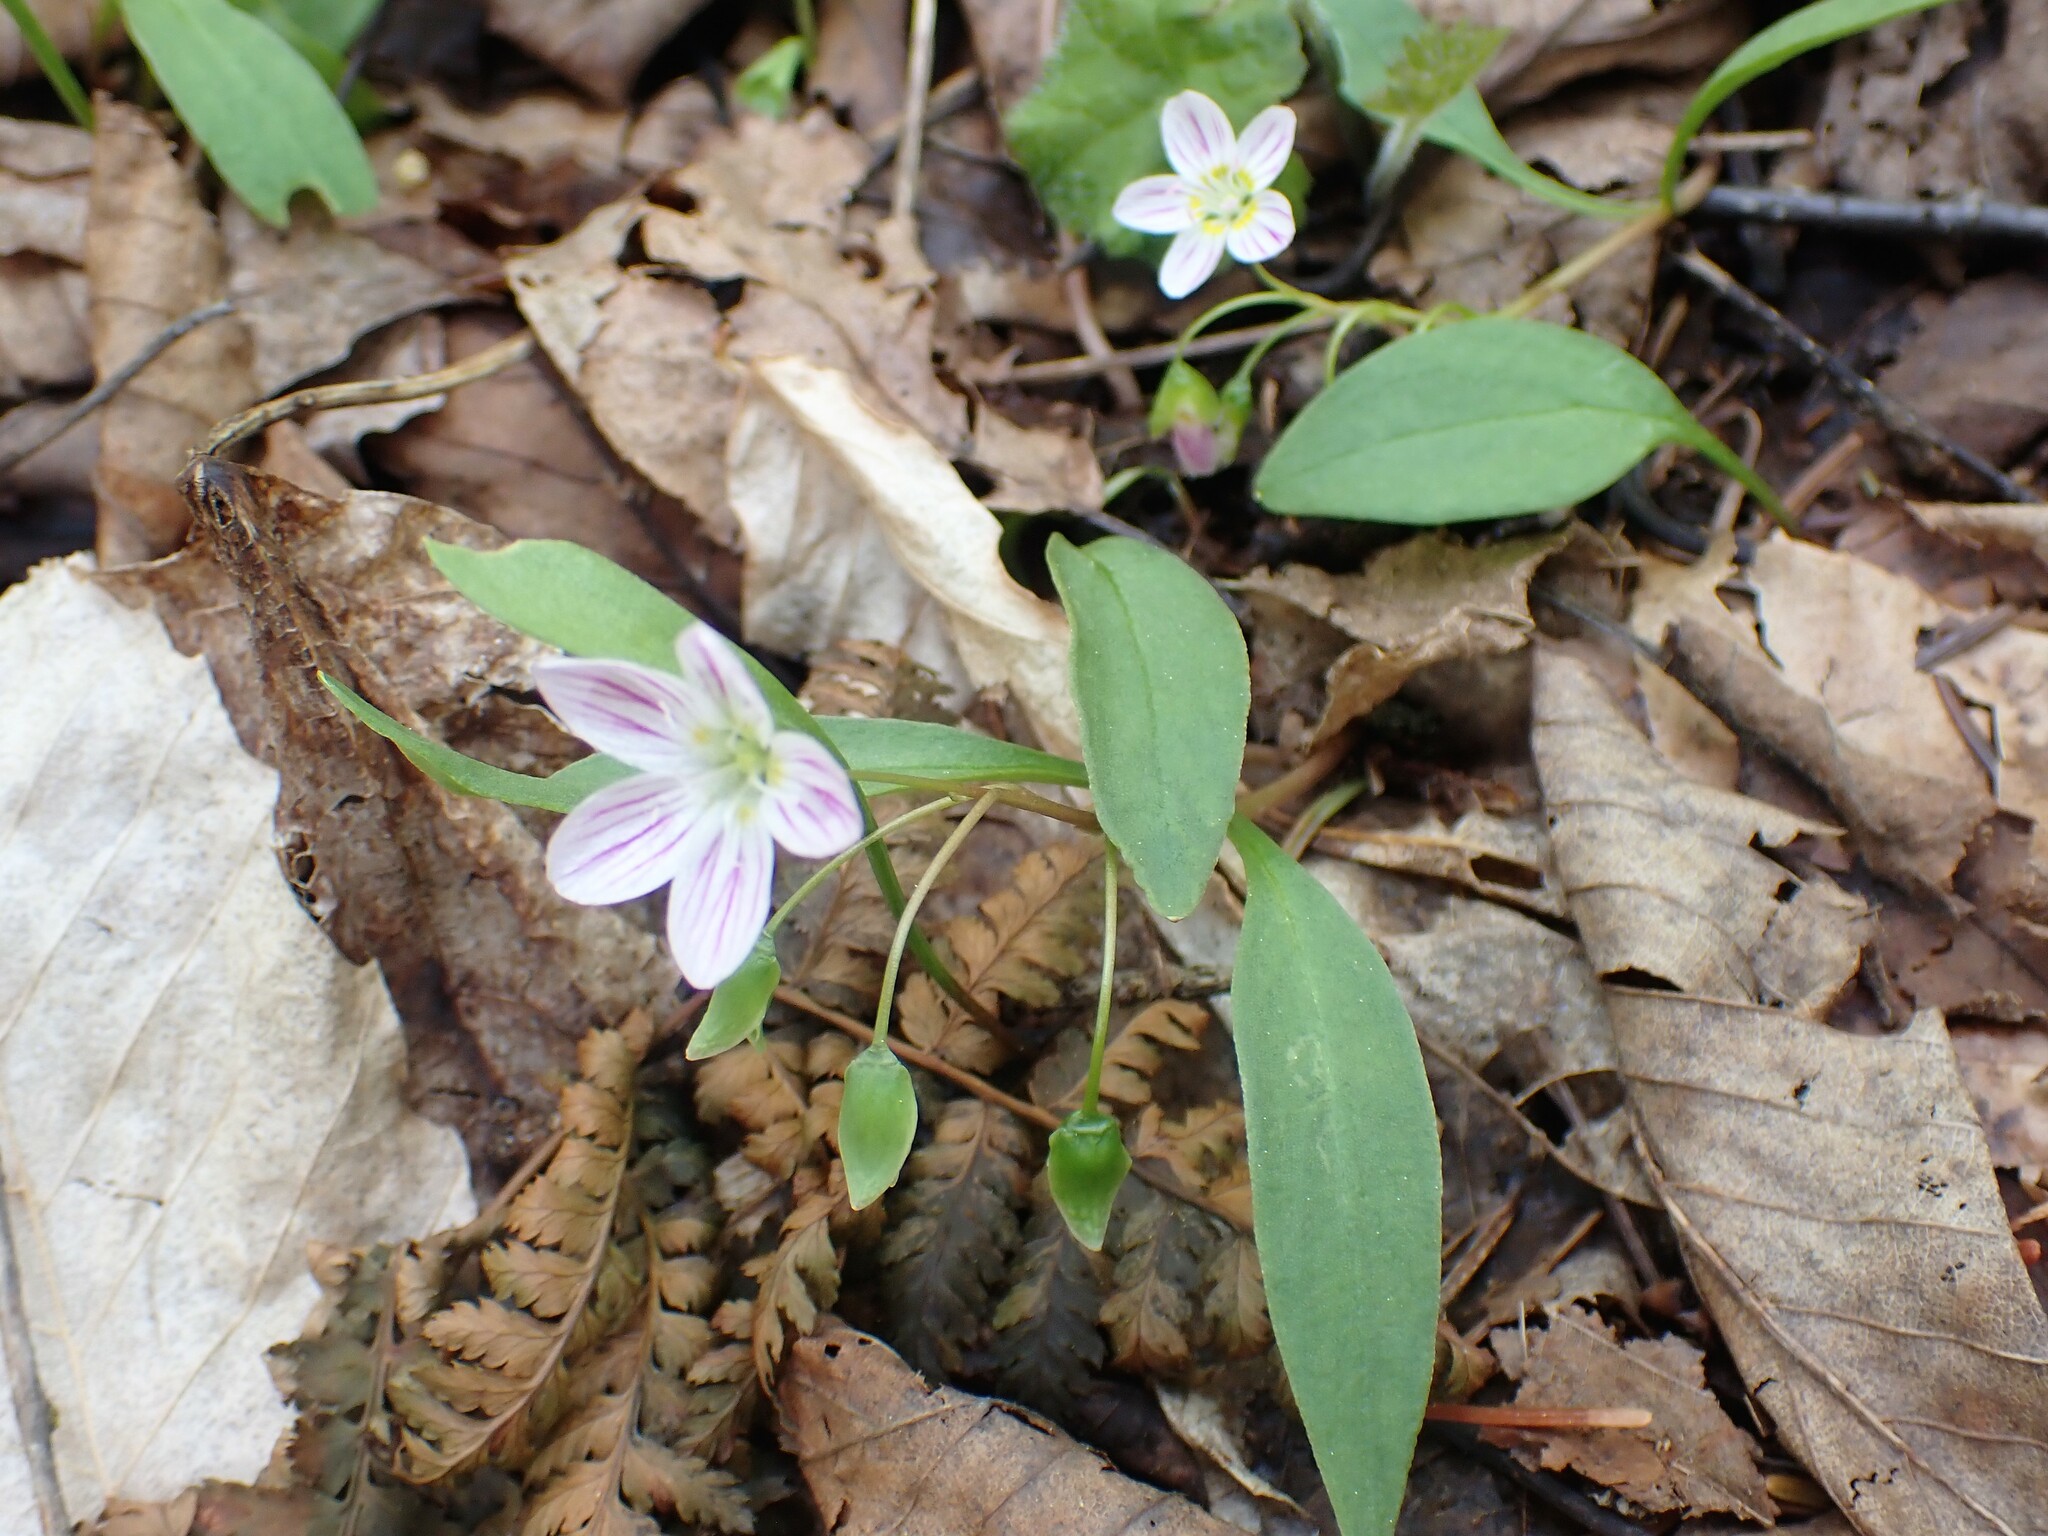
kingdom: Plantae
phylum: Tracheophyta
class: Magnoliopsida
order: Caryophyllales
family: Montiaceae
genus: Claytonia
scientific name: Claytonia caroliniana
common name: Carolina spring beauty
